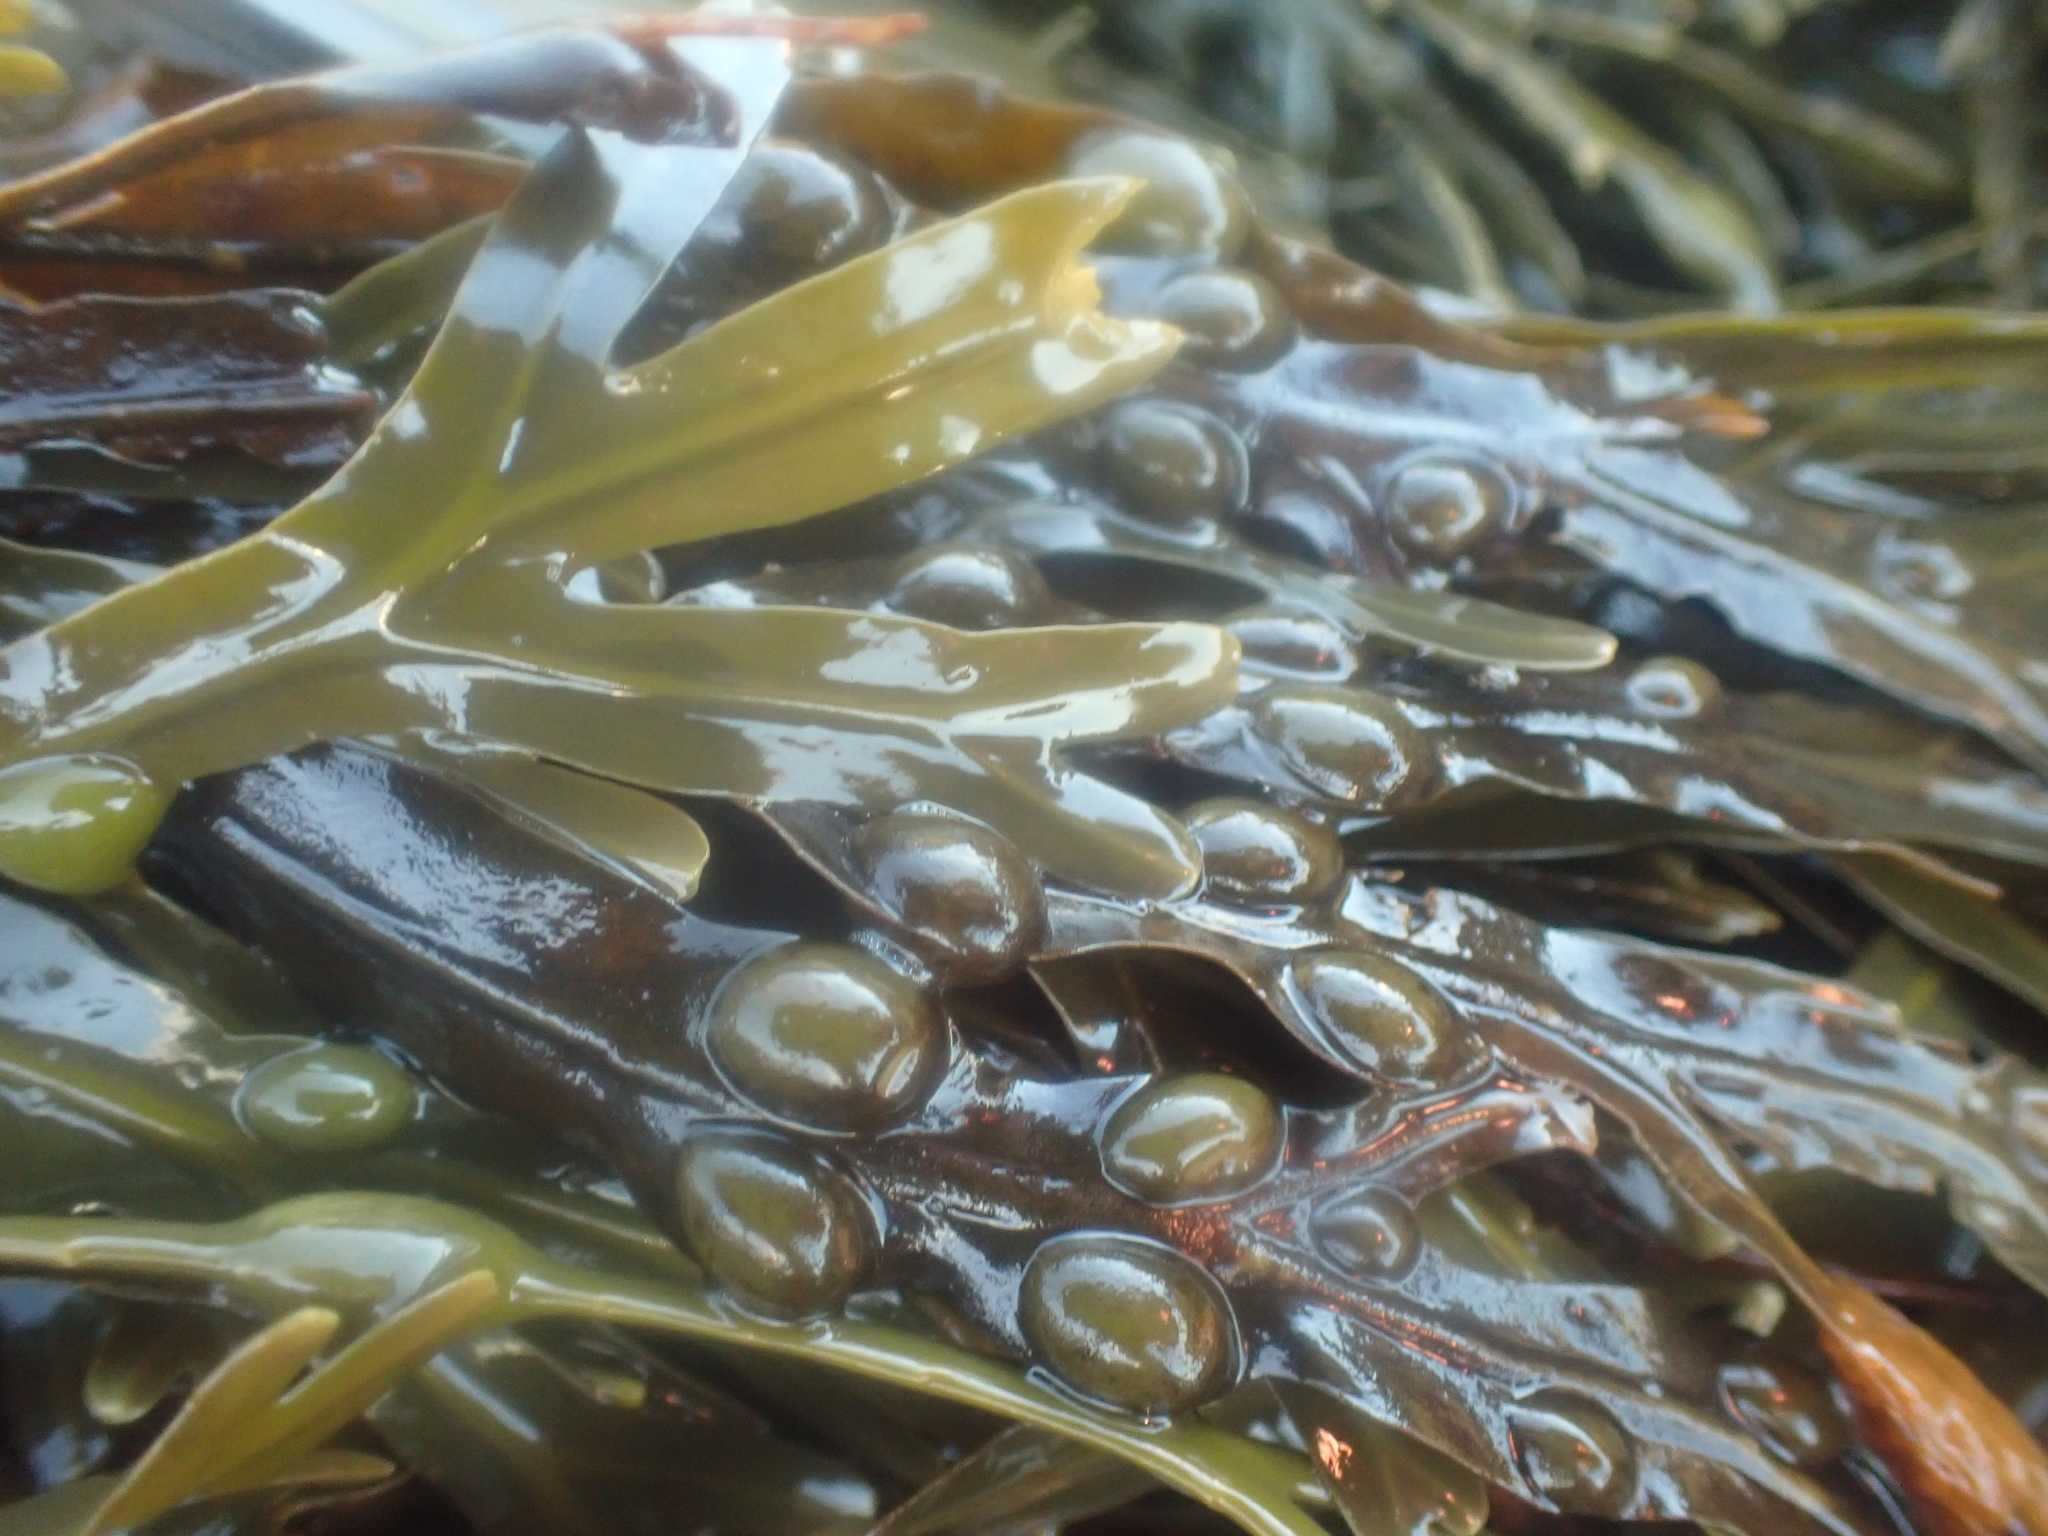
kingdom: Chromista
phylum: Ochrophyta
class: Phaeophyceae
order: Fucales
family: Fucaceae
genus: Fucus
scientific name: Fucus vesiculosus
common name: Bladder wrack
